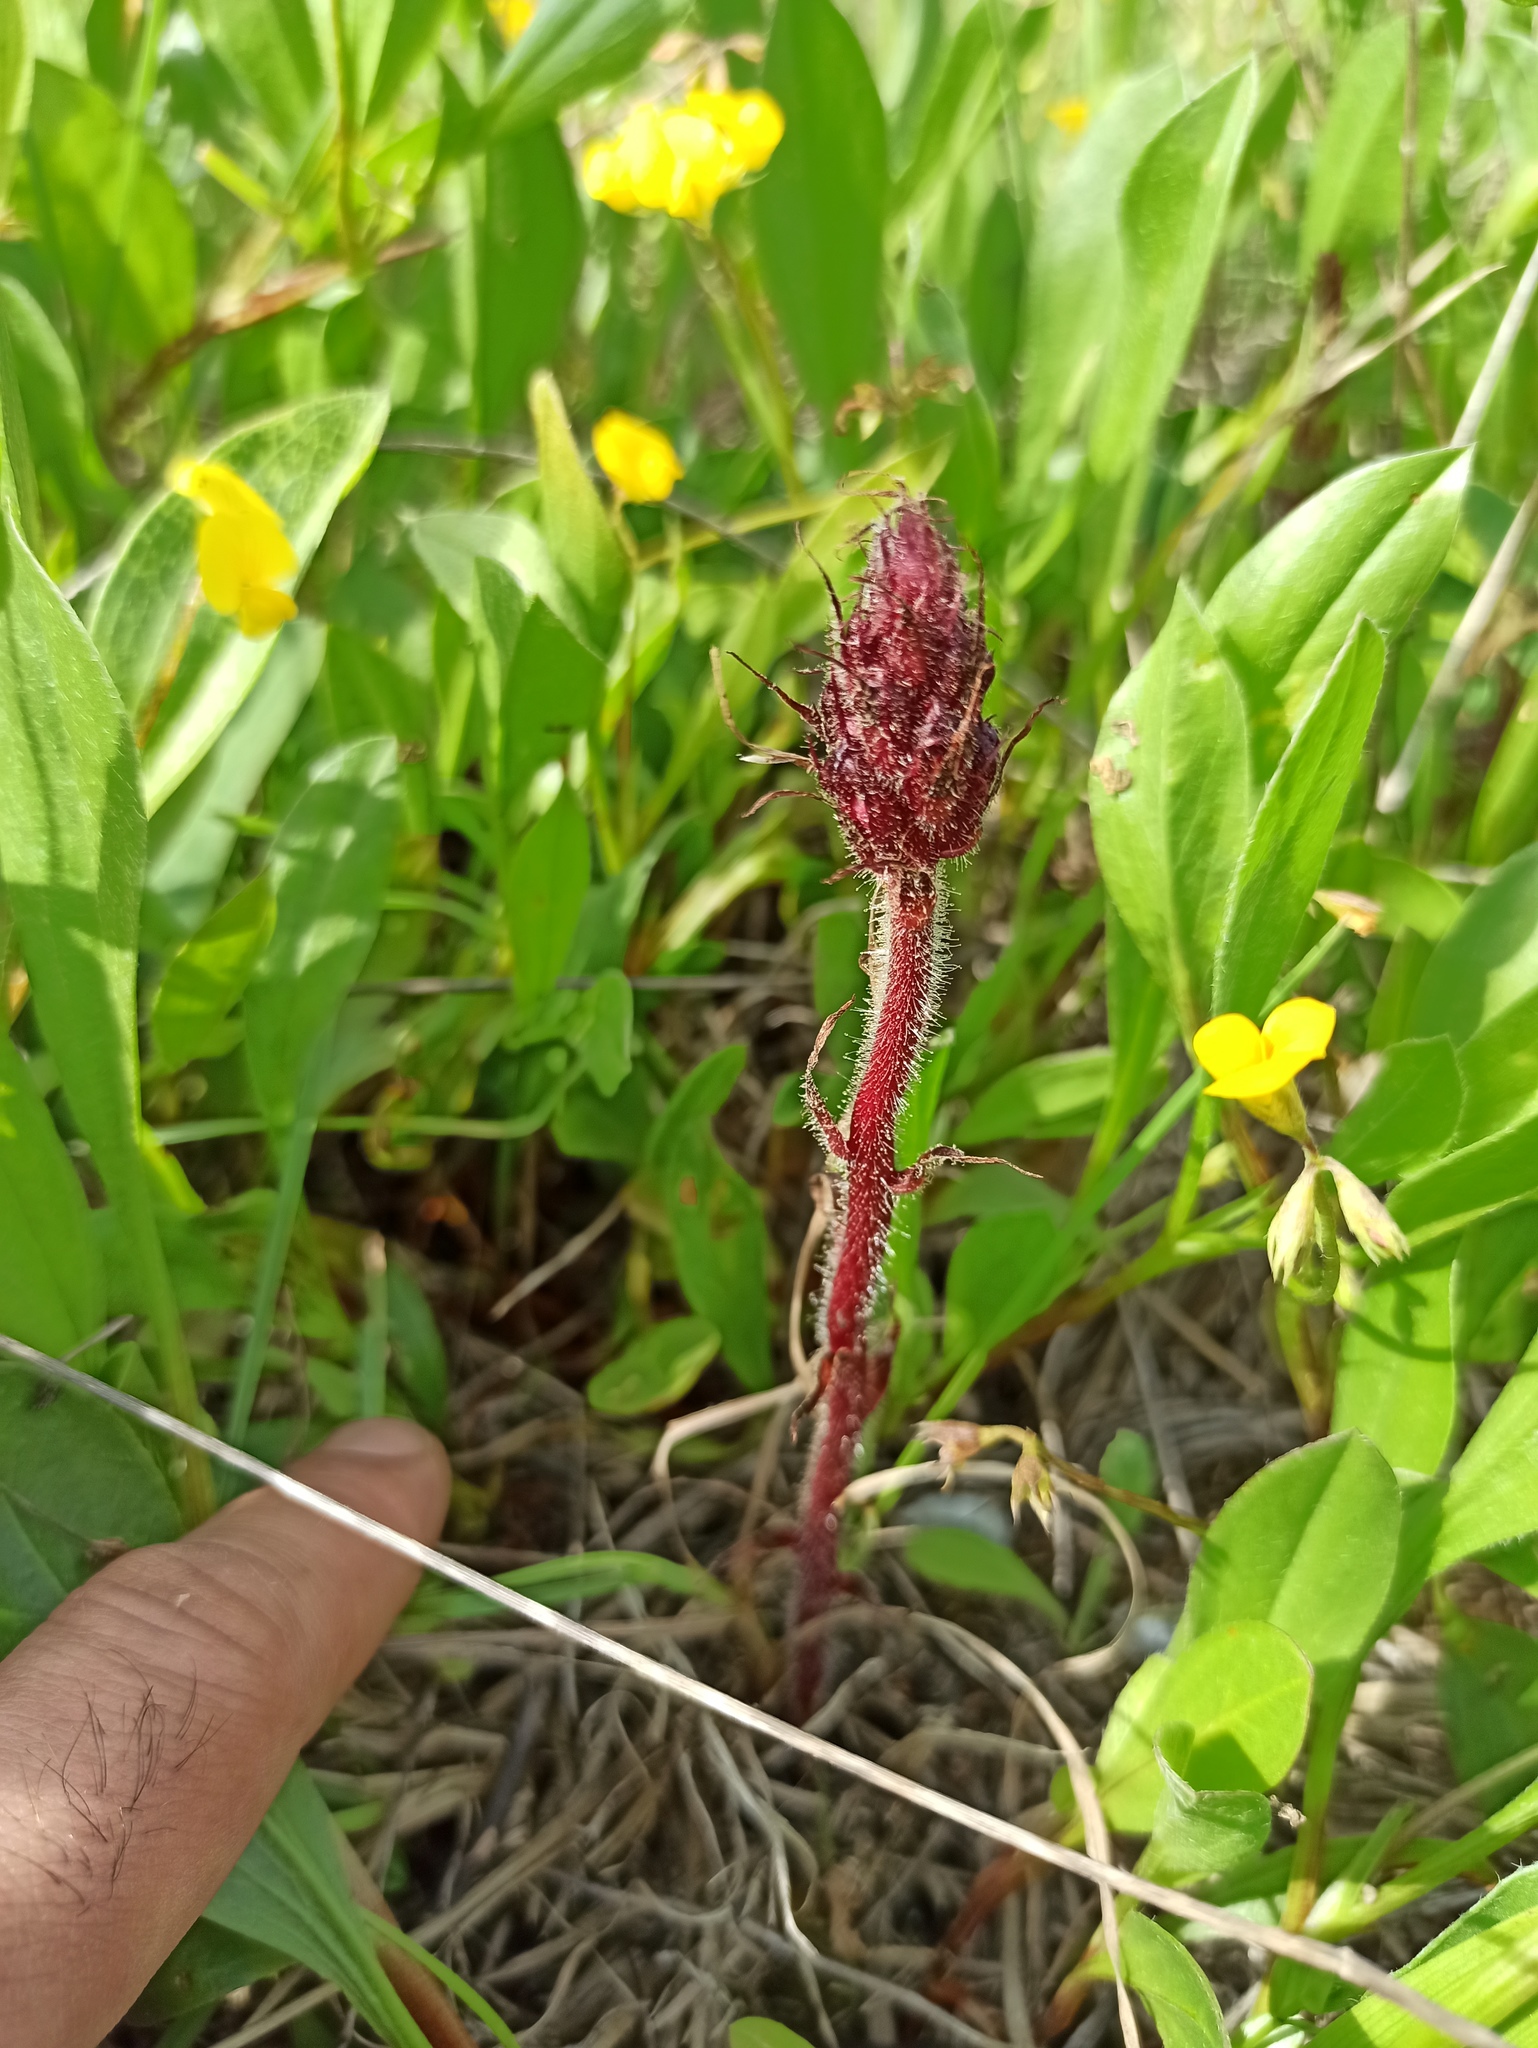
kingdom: Plantae
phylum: Tracheophyta
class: Magnoliopsida
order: Lamiales
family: Orobanchaceae
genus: Orobanche
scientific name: Orobanche foetida
